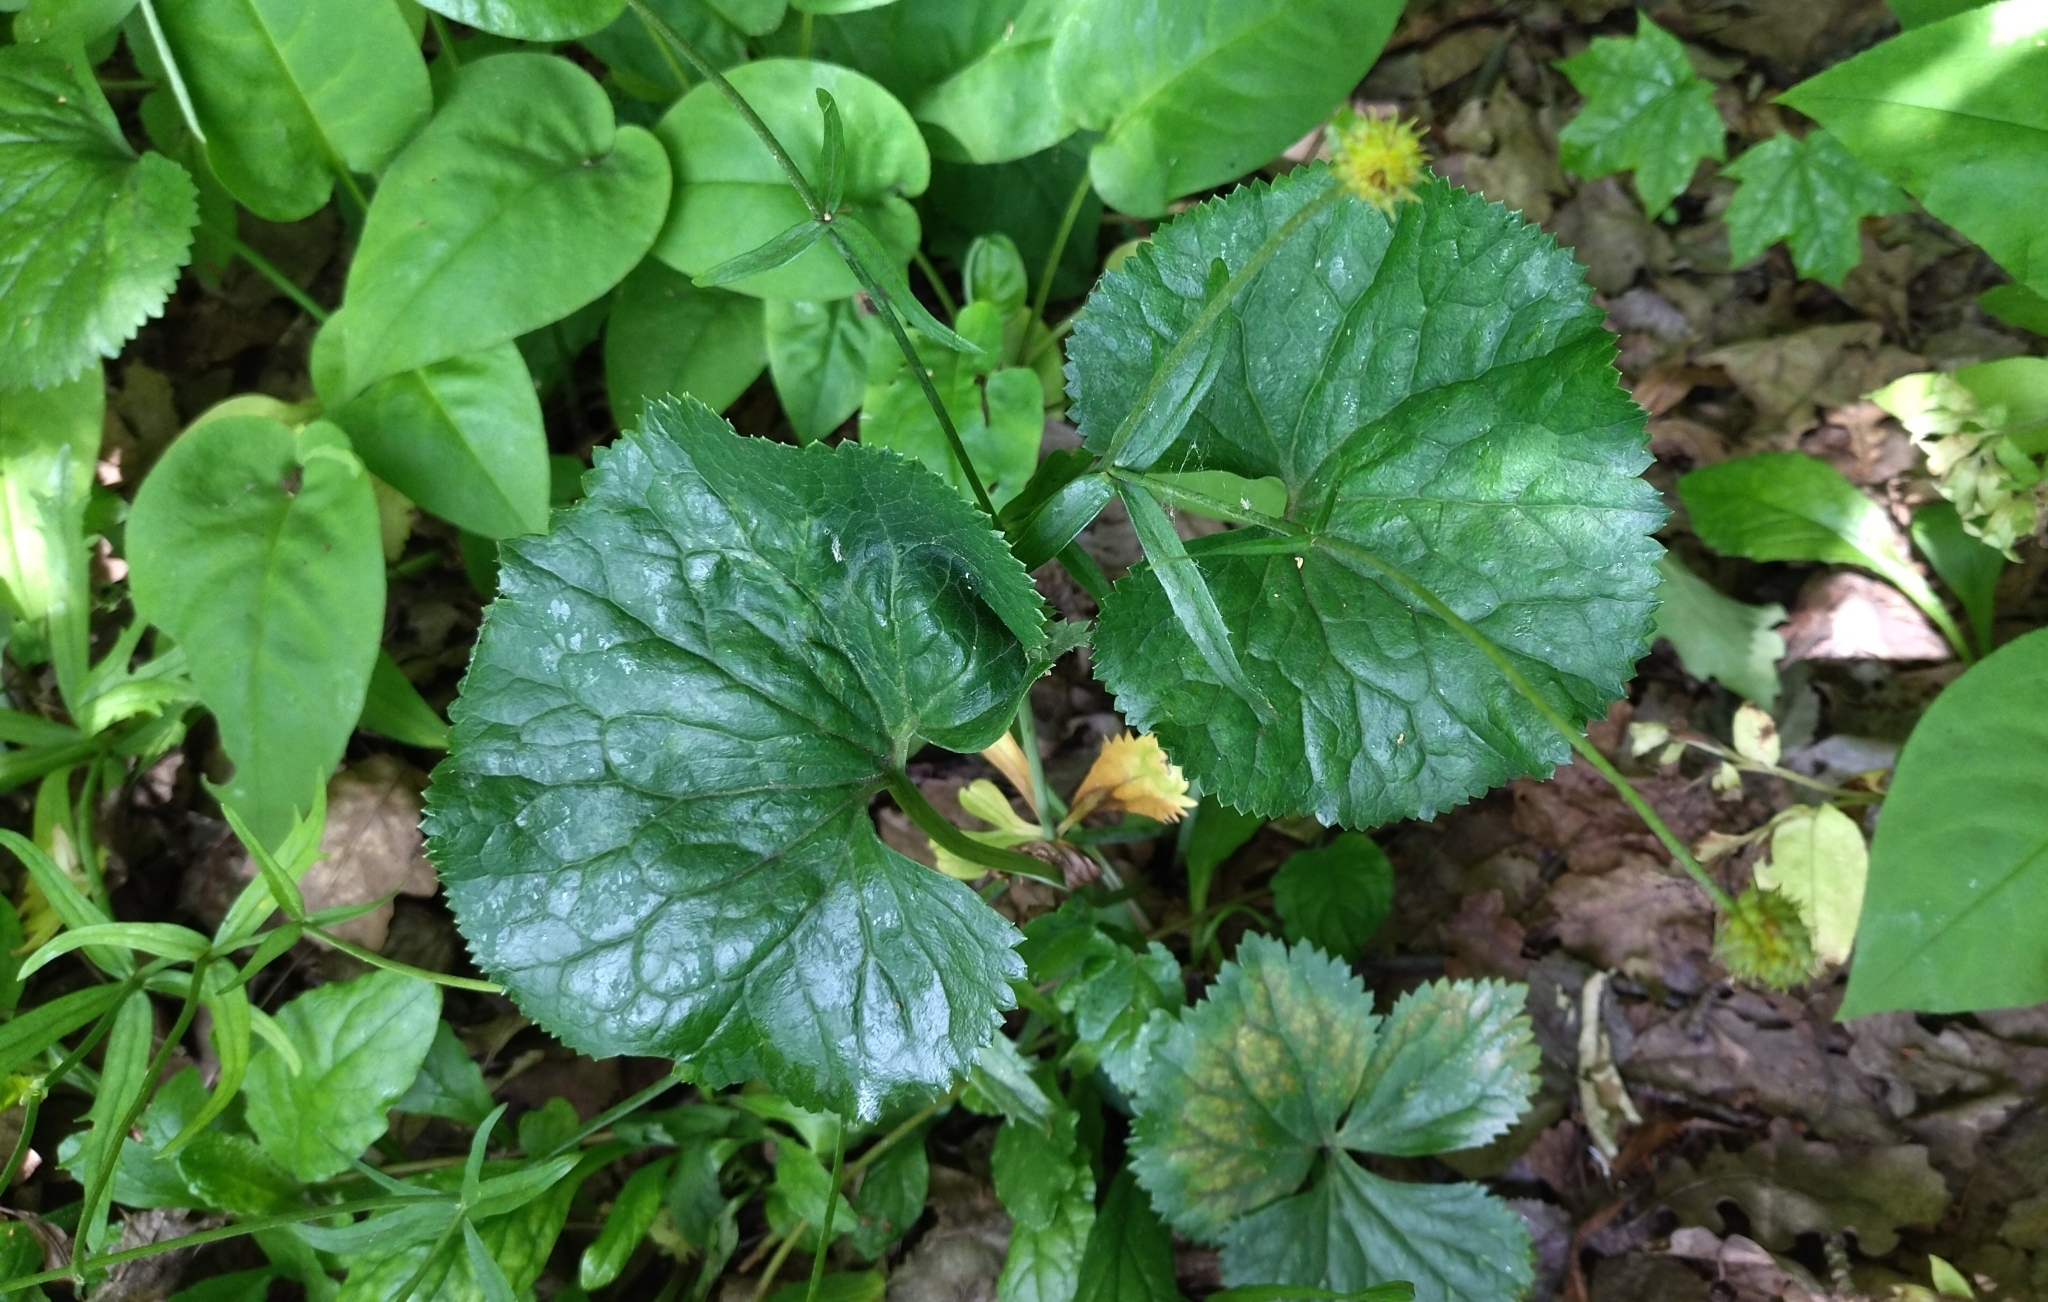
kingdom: Plantae
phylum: Tracheophyta
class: Magnoliopsida
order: Ranunculales
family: Ranunculaceae
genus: Ranunculus
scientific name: Ranunculus cassubicus
